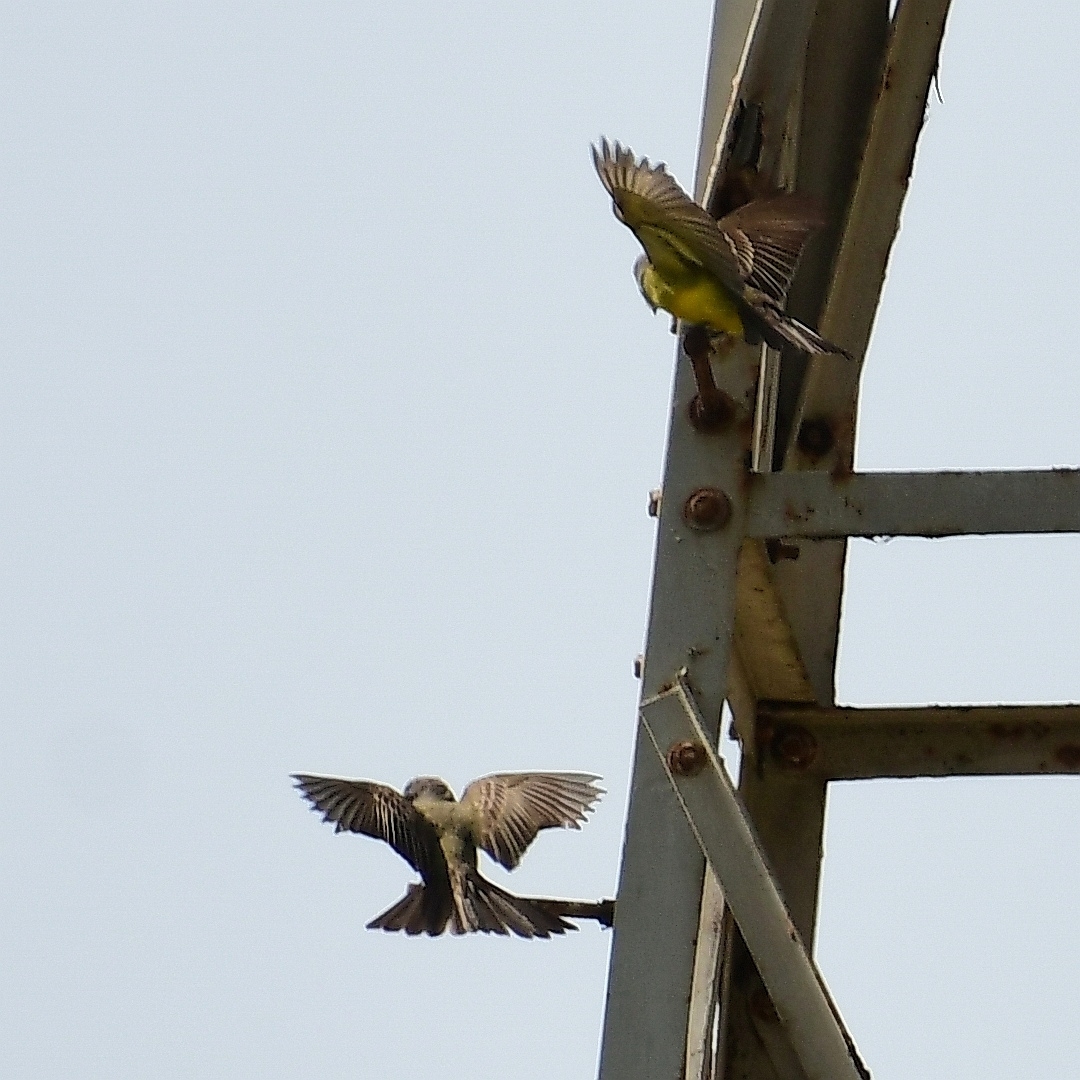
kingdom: Animalia
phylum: Chordata
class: Aves
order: Passeriformes
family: Tyrannidae
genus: Tyrannus
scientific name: Tyrannus melancholicus
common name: Tropical kingbird
